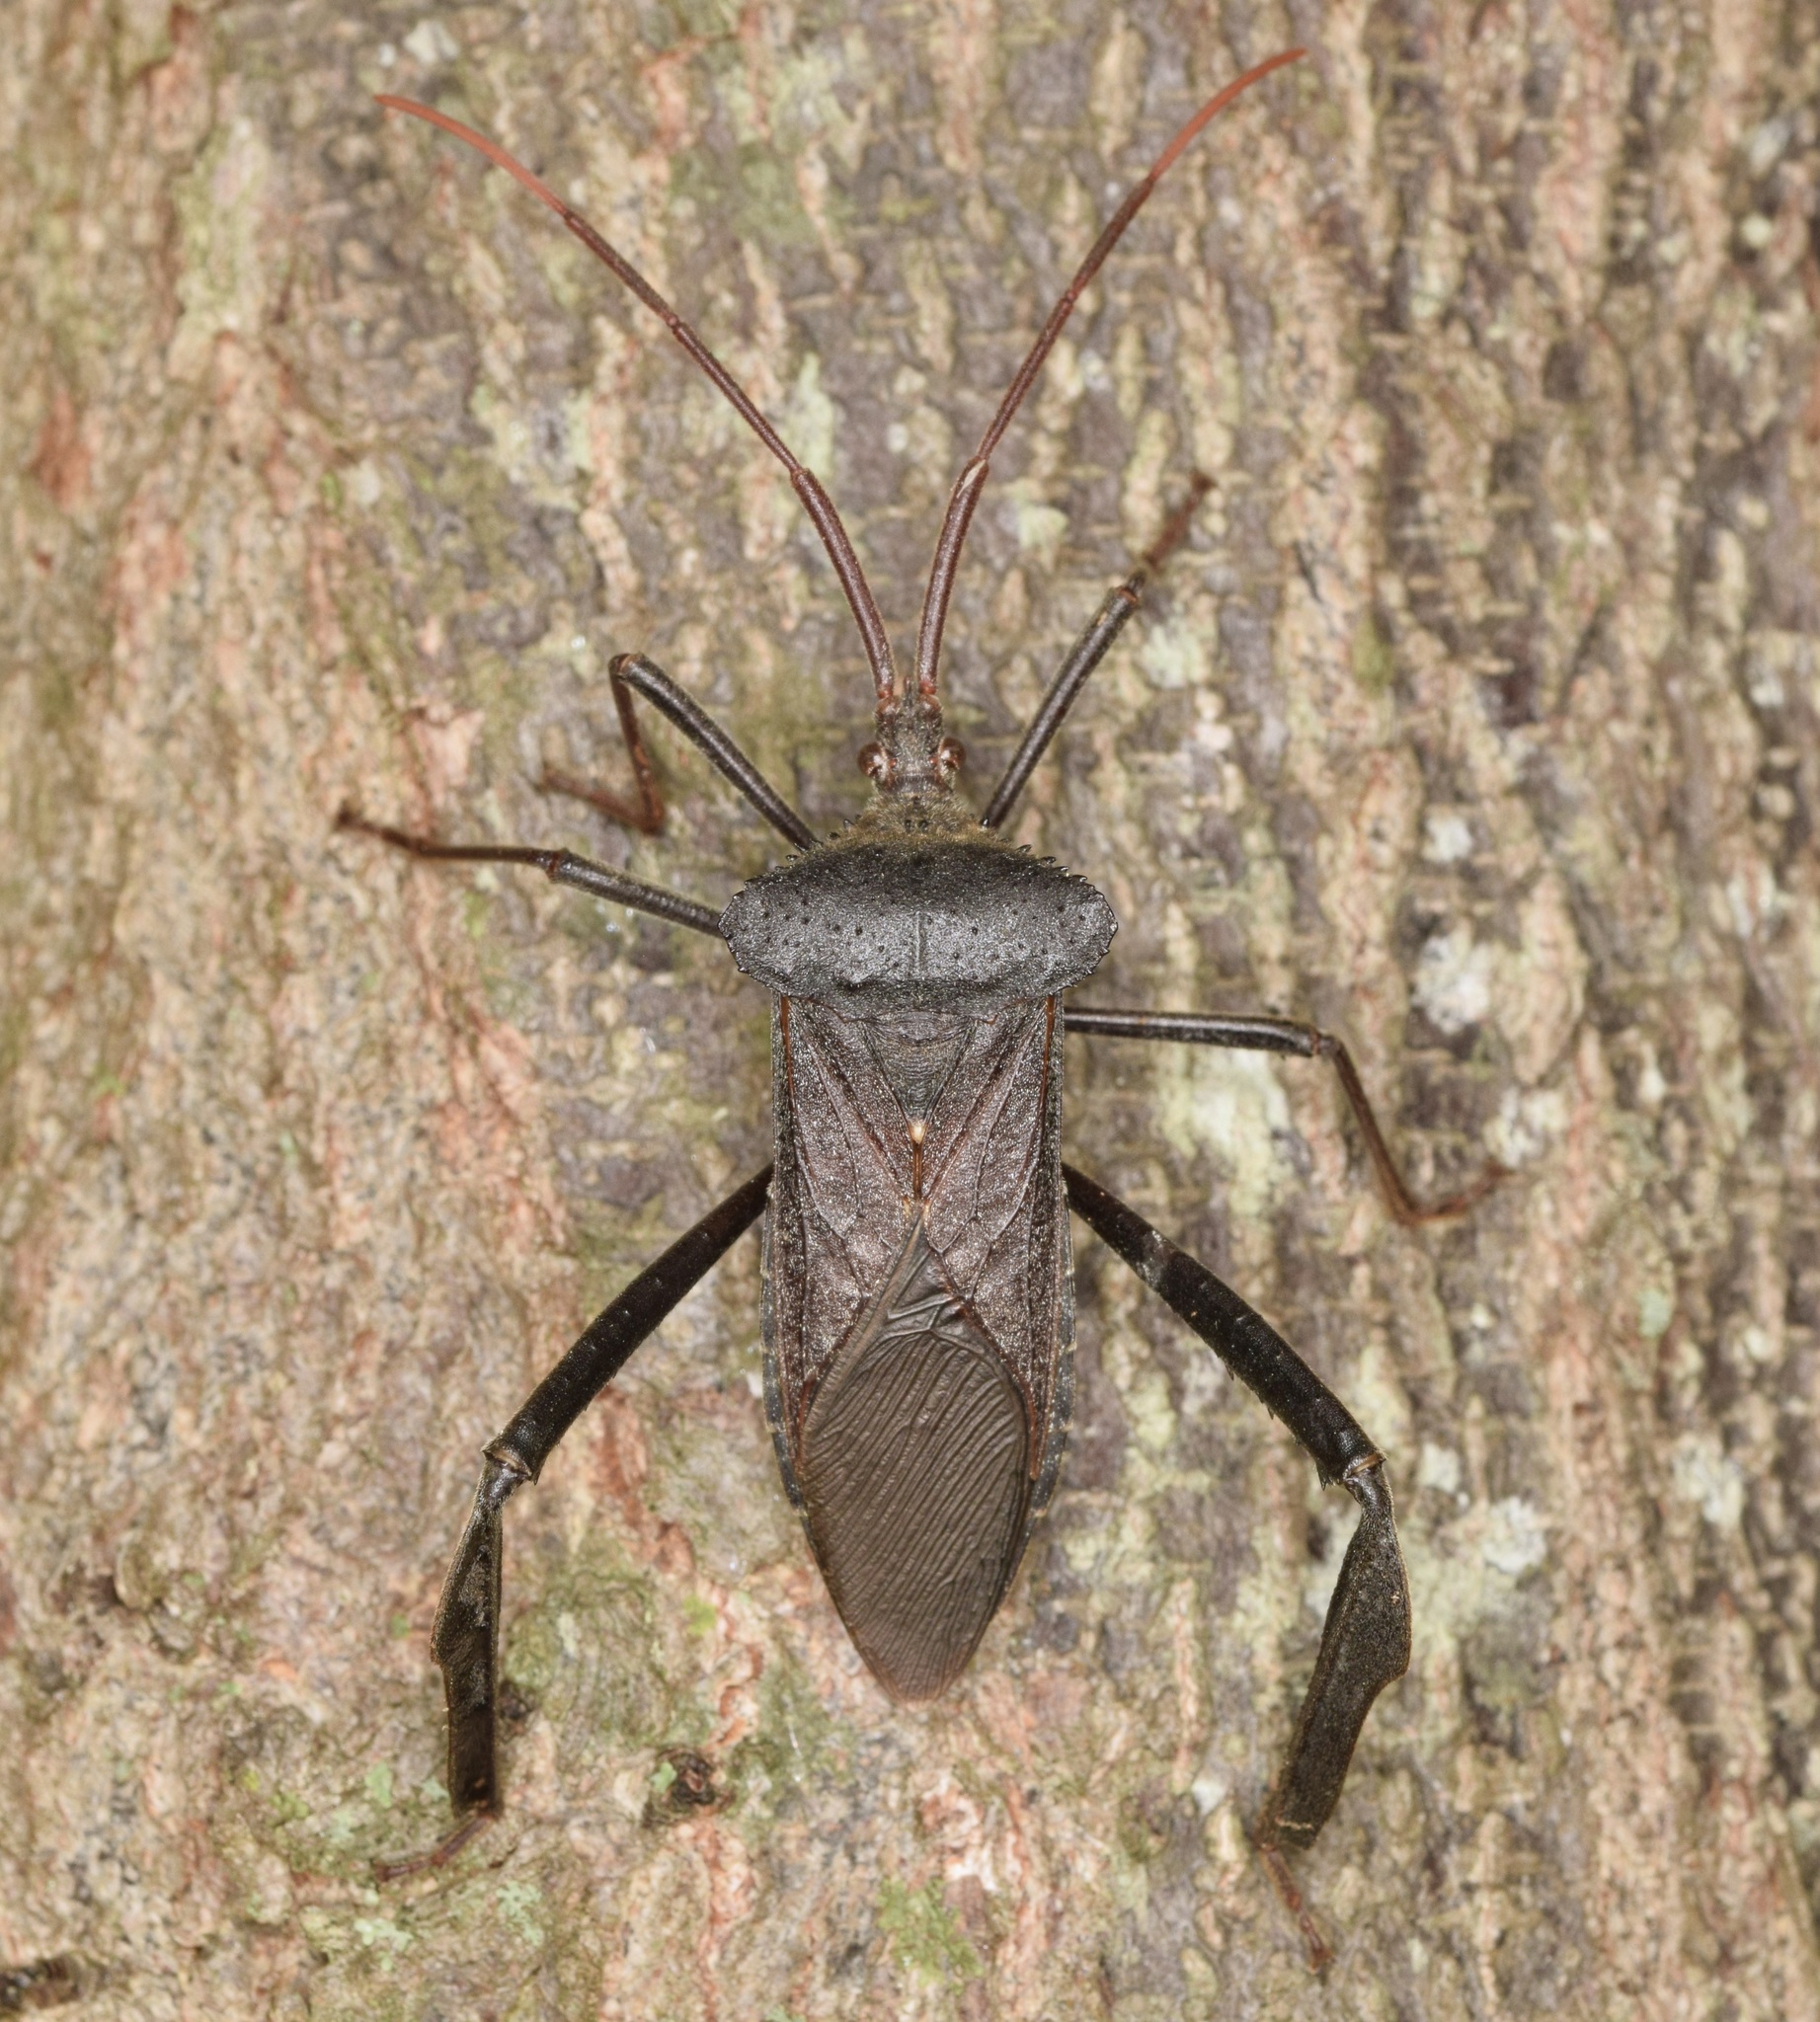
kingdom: Animalia
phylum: Arthropoda
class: Insecta
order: Hemiptera
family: Coreidae
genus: Acanthocephala
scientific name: Acanthocephala declivis
